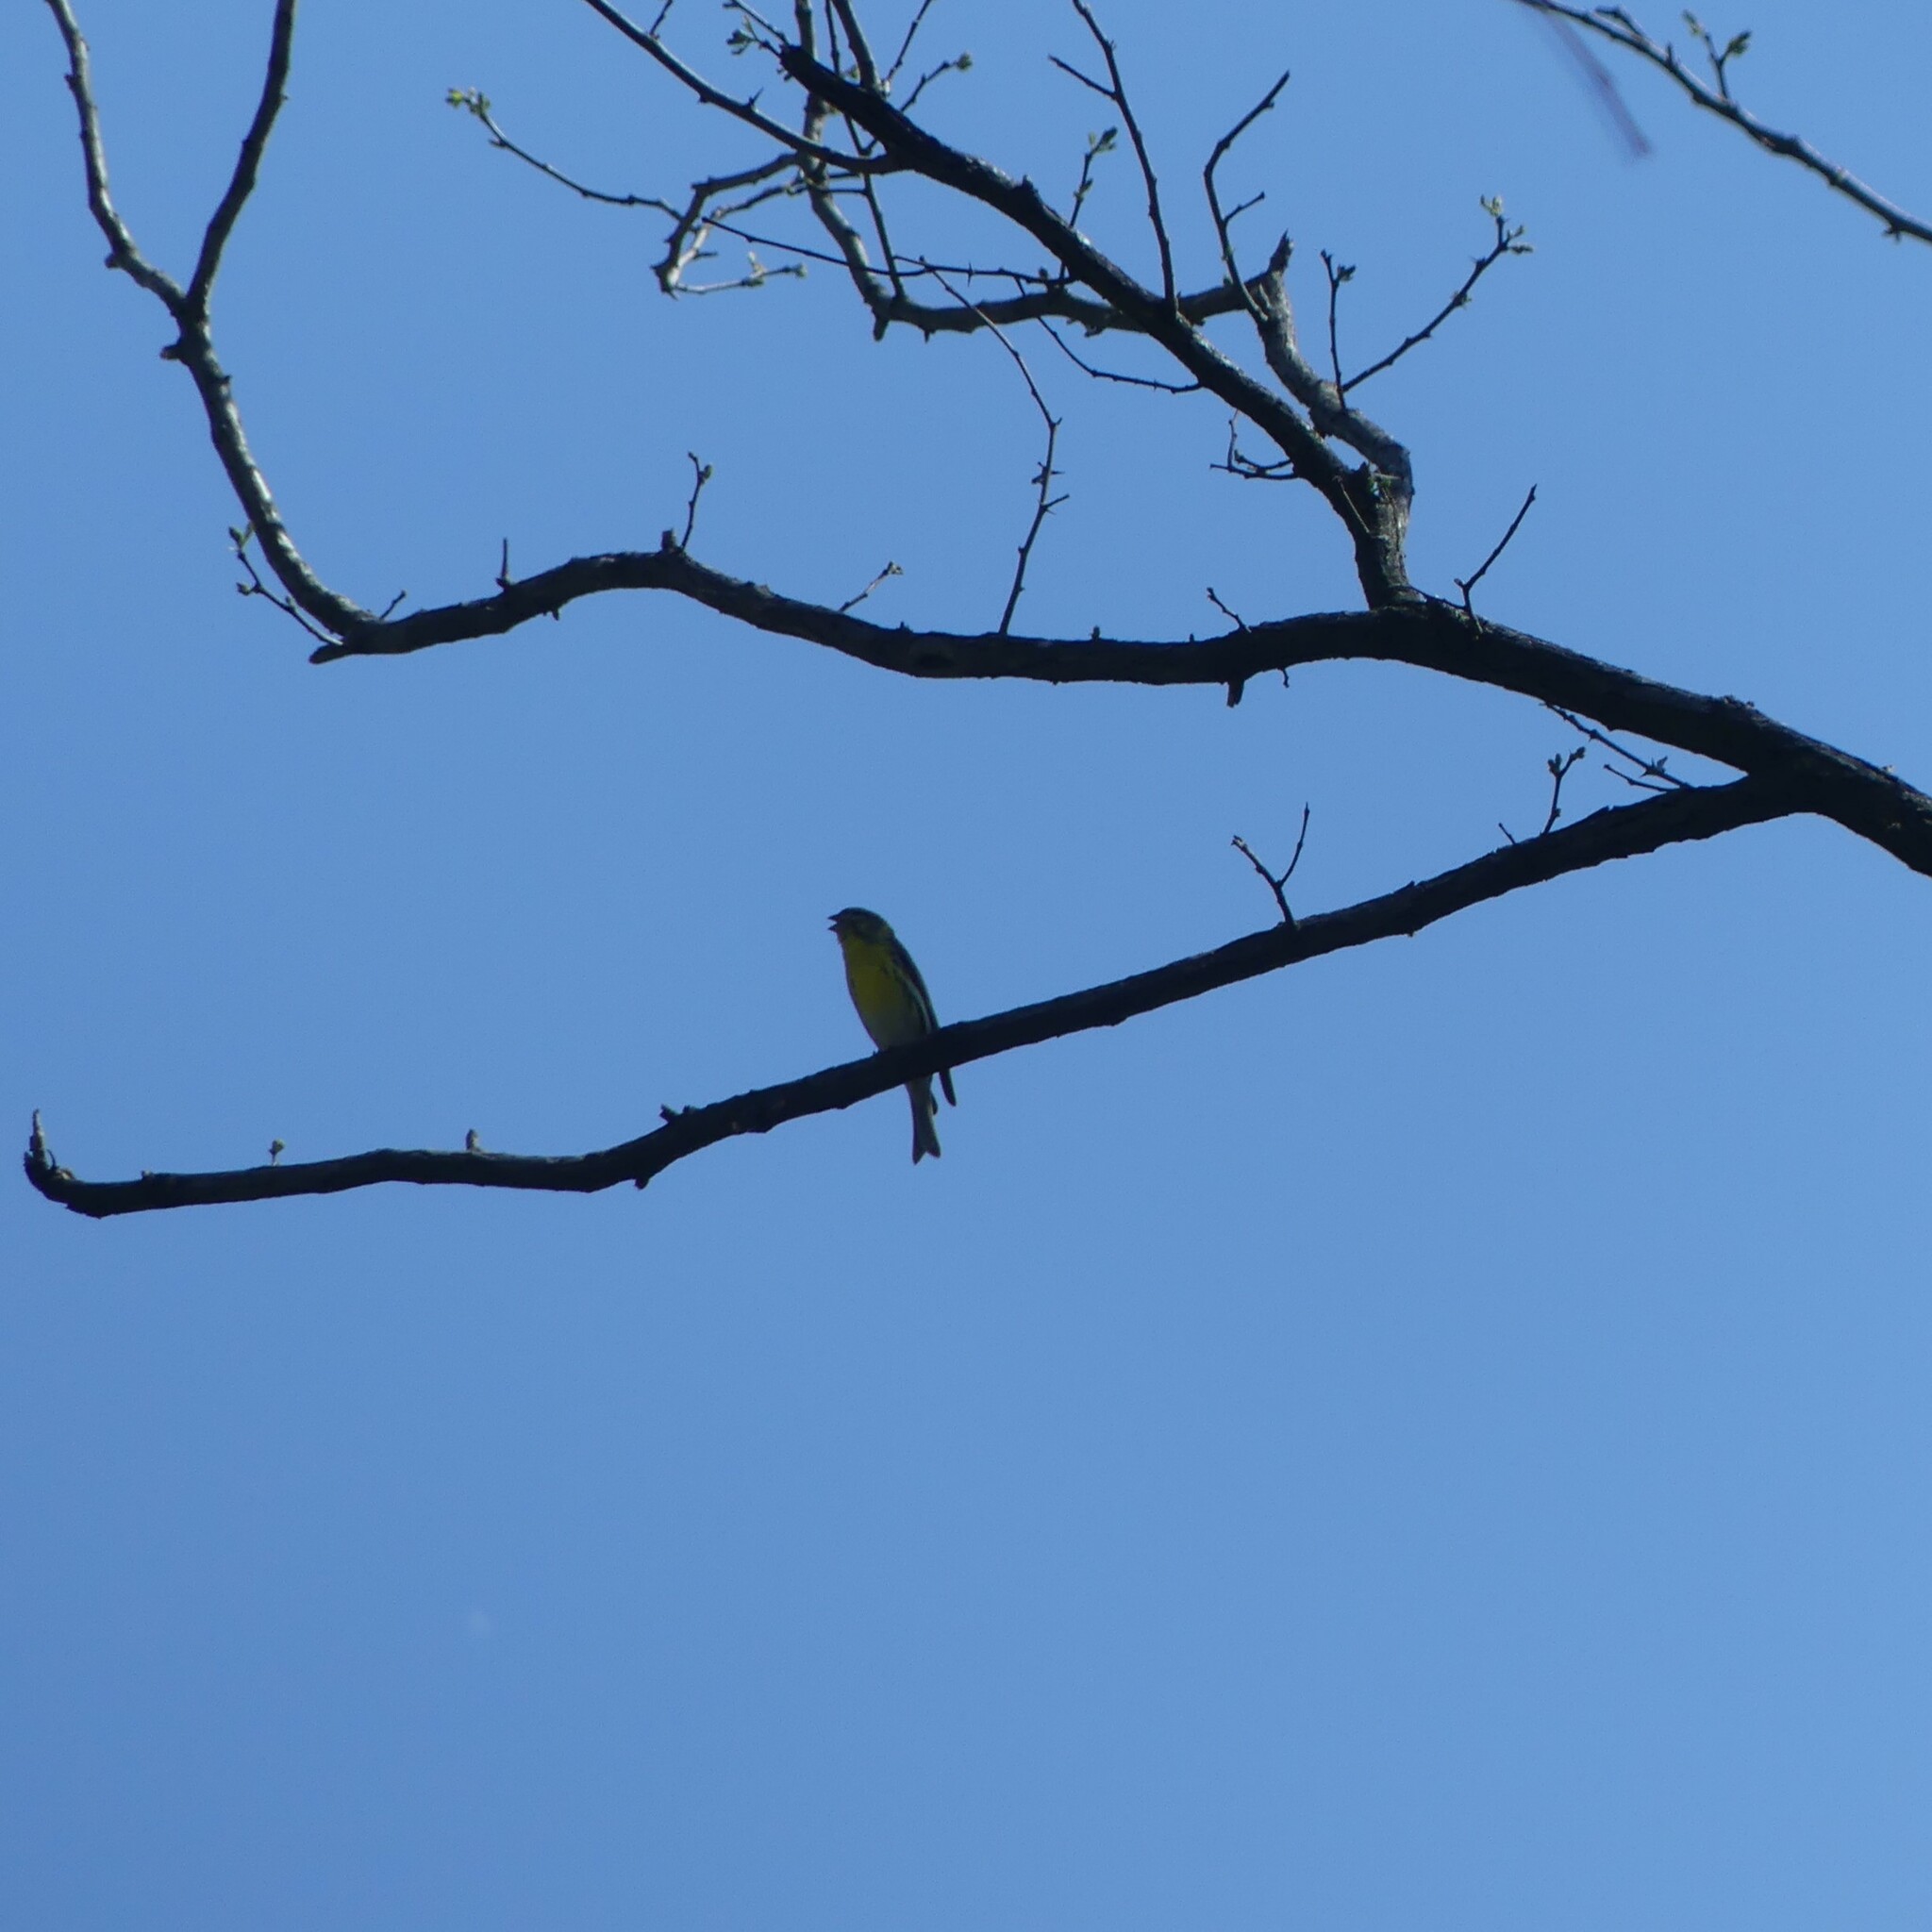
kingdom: Animalia
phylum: Chordata
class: Aves
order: Passeriformes
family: Fringillidae
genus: Serinus
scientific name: Serinus serinus
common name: European serin
